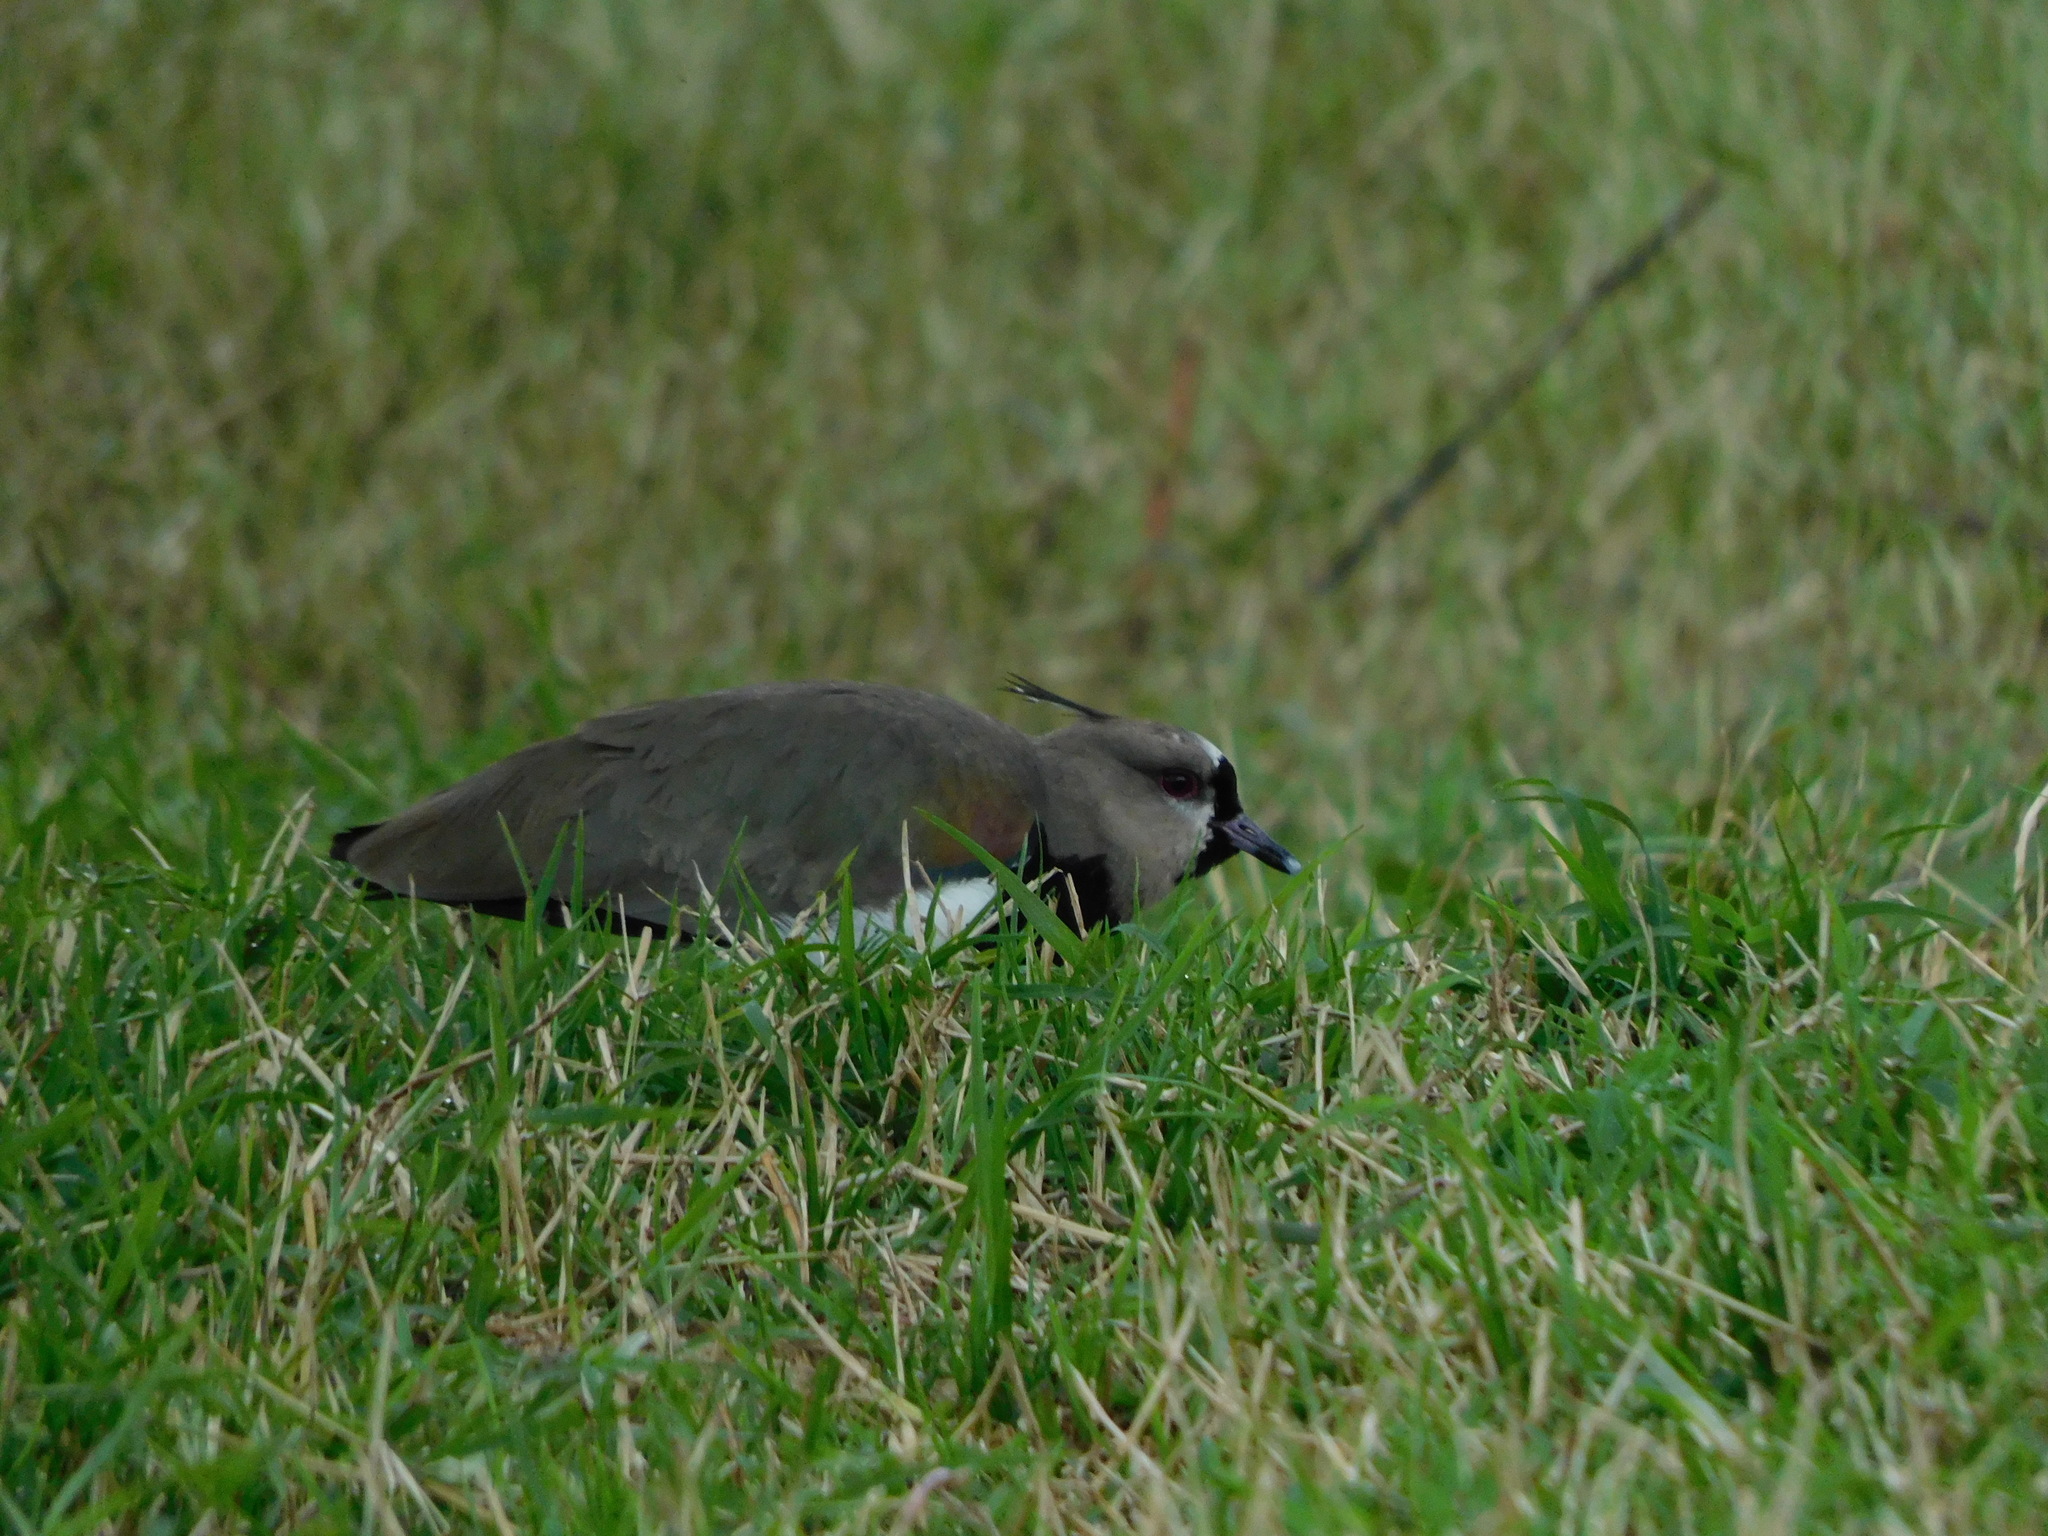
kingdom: Animalia
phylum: Chordata
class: Aves
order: Charadriiformes
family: Charadriidae
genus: Vanellus
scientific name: Vanellus chilensis
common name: Southern lapwing
